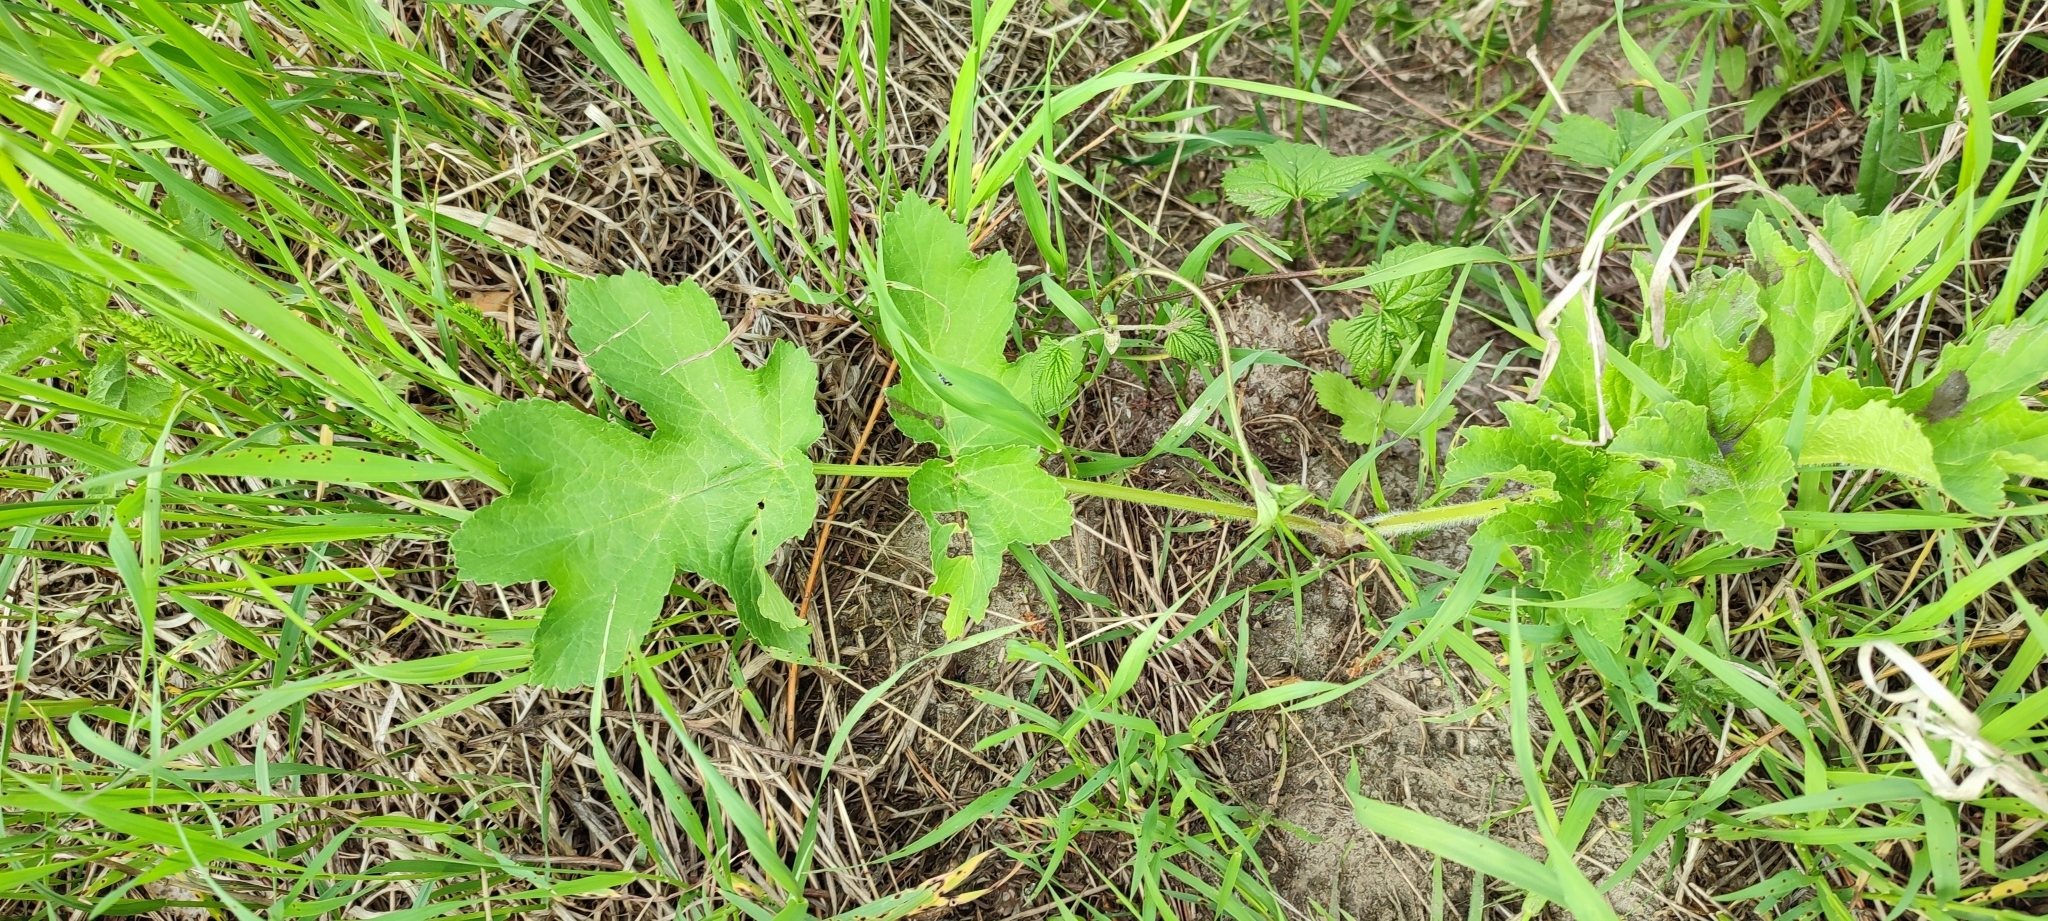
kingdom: Plantae
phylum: Tracheophyta
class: Magnoliopsida
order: Apiales
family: Apiaceae
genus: Heracleum
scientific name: Heracleum sphondylium
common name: Hogweed
